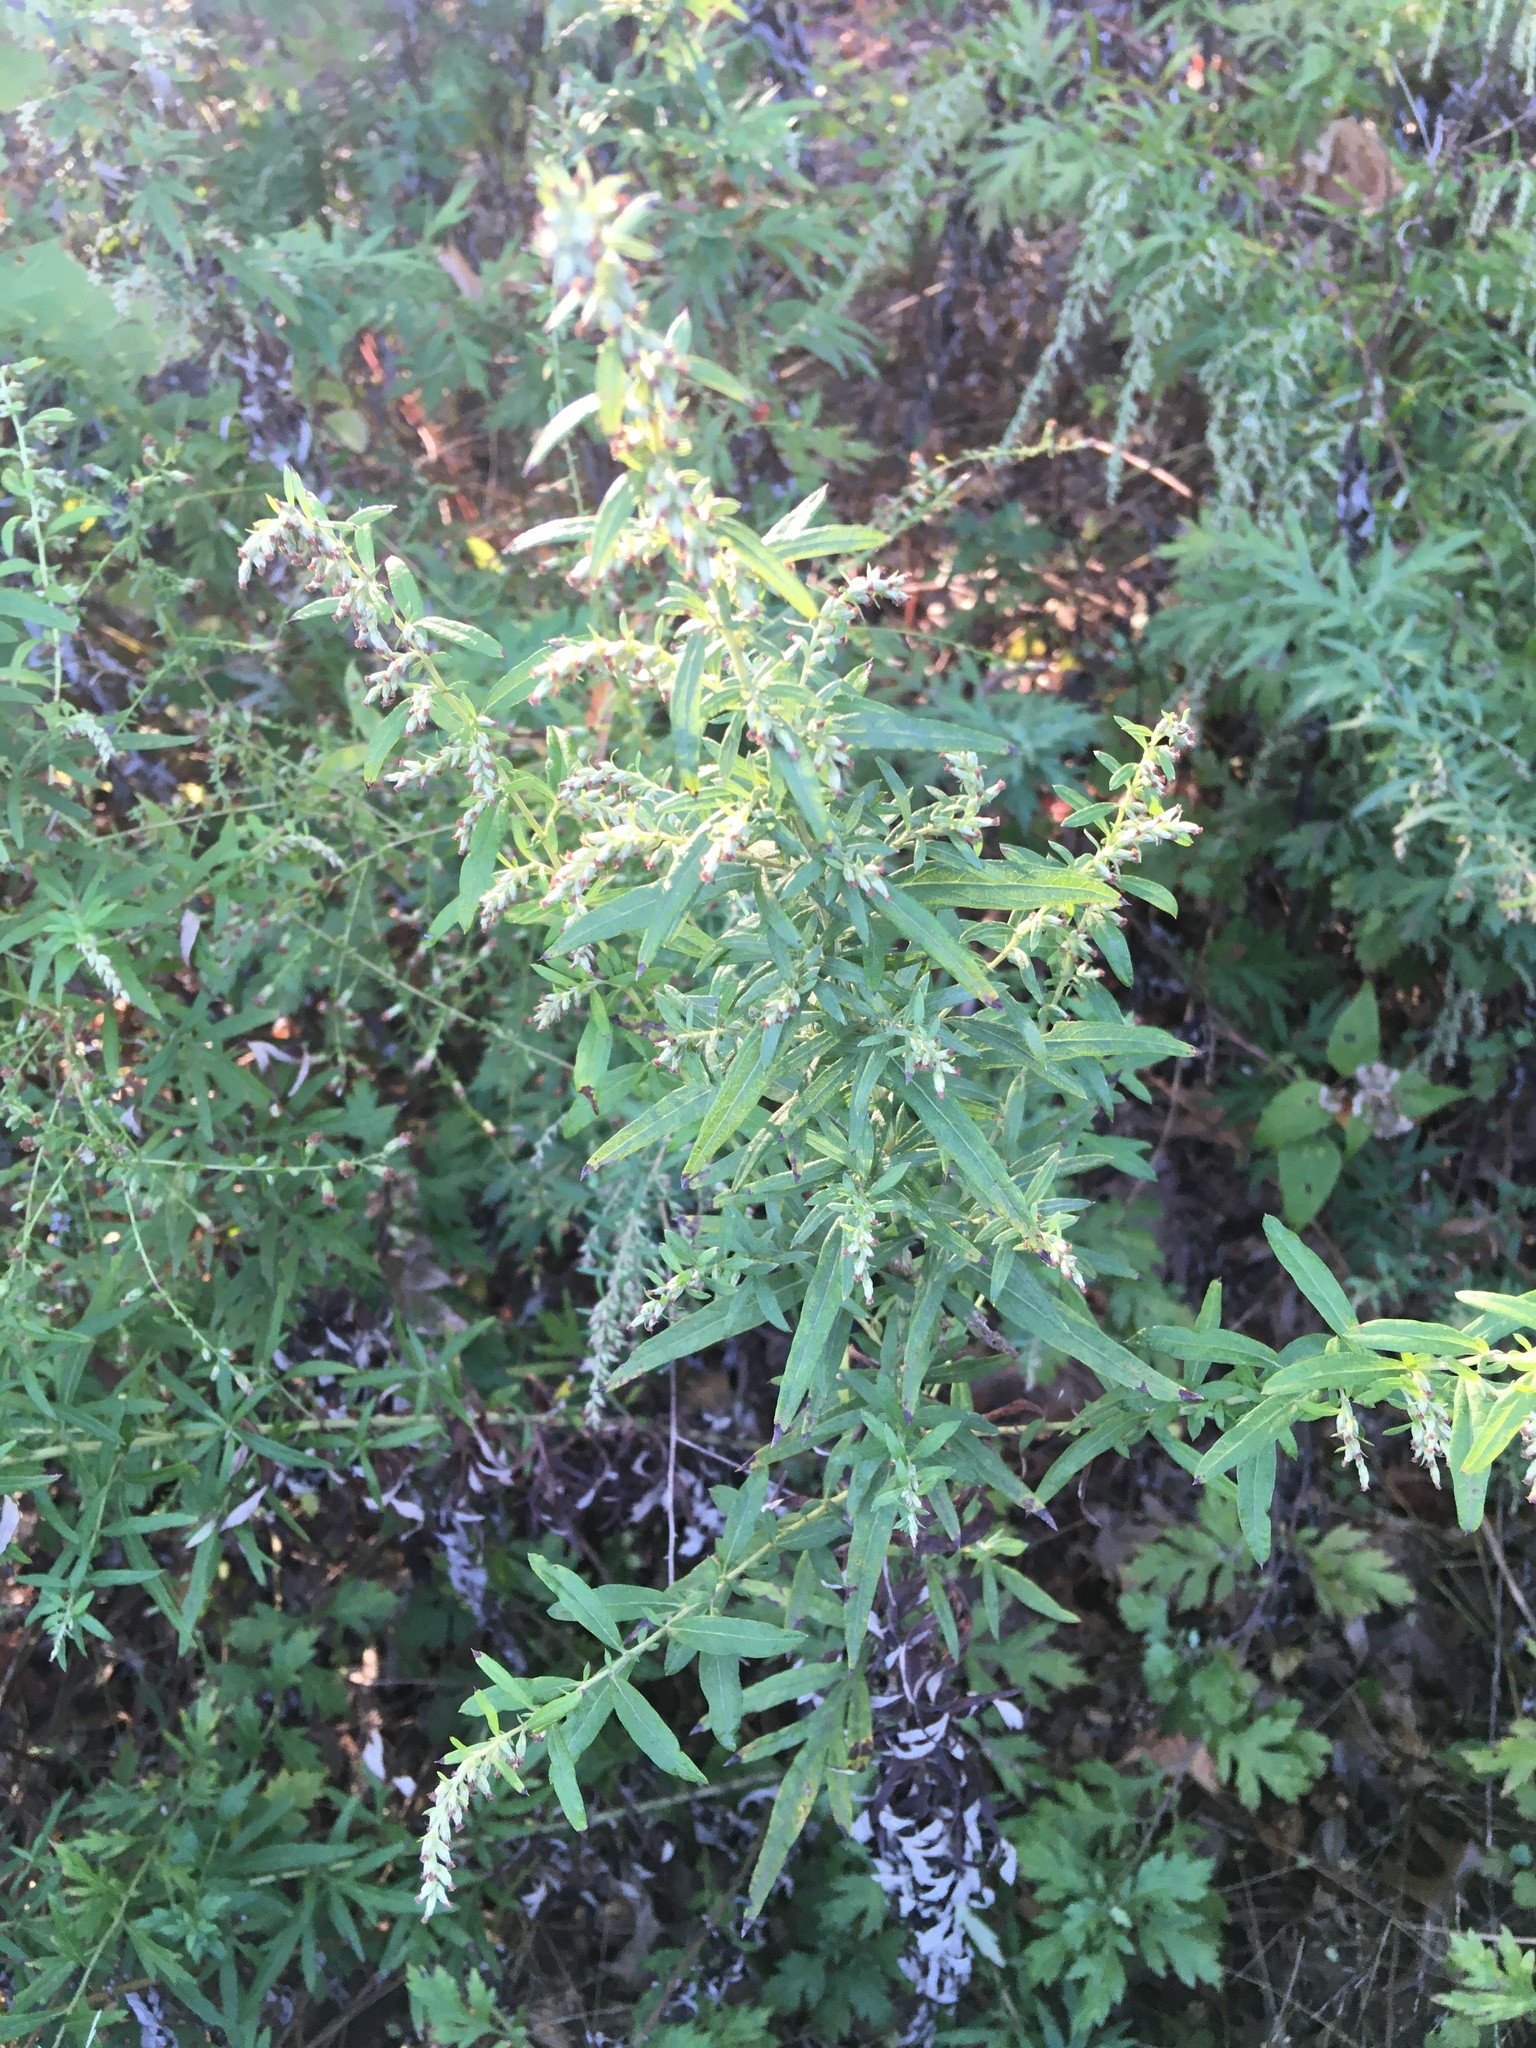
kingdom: Plantae
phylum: Tracheophyta
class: Magnoliopsida
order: Asterales
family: Asteraceae
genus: Artemisia
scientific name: Artemisia vulgaris
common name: Mugwort
